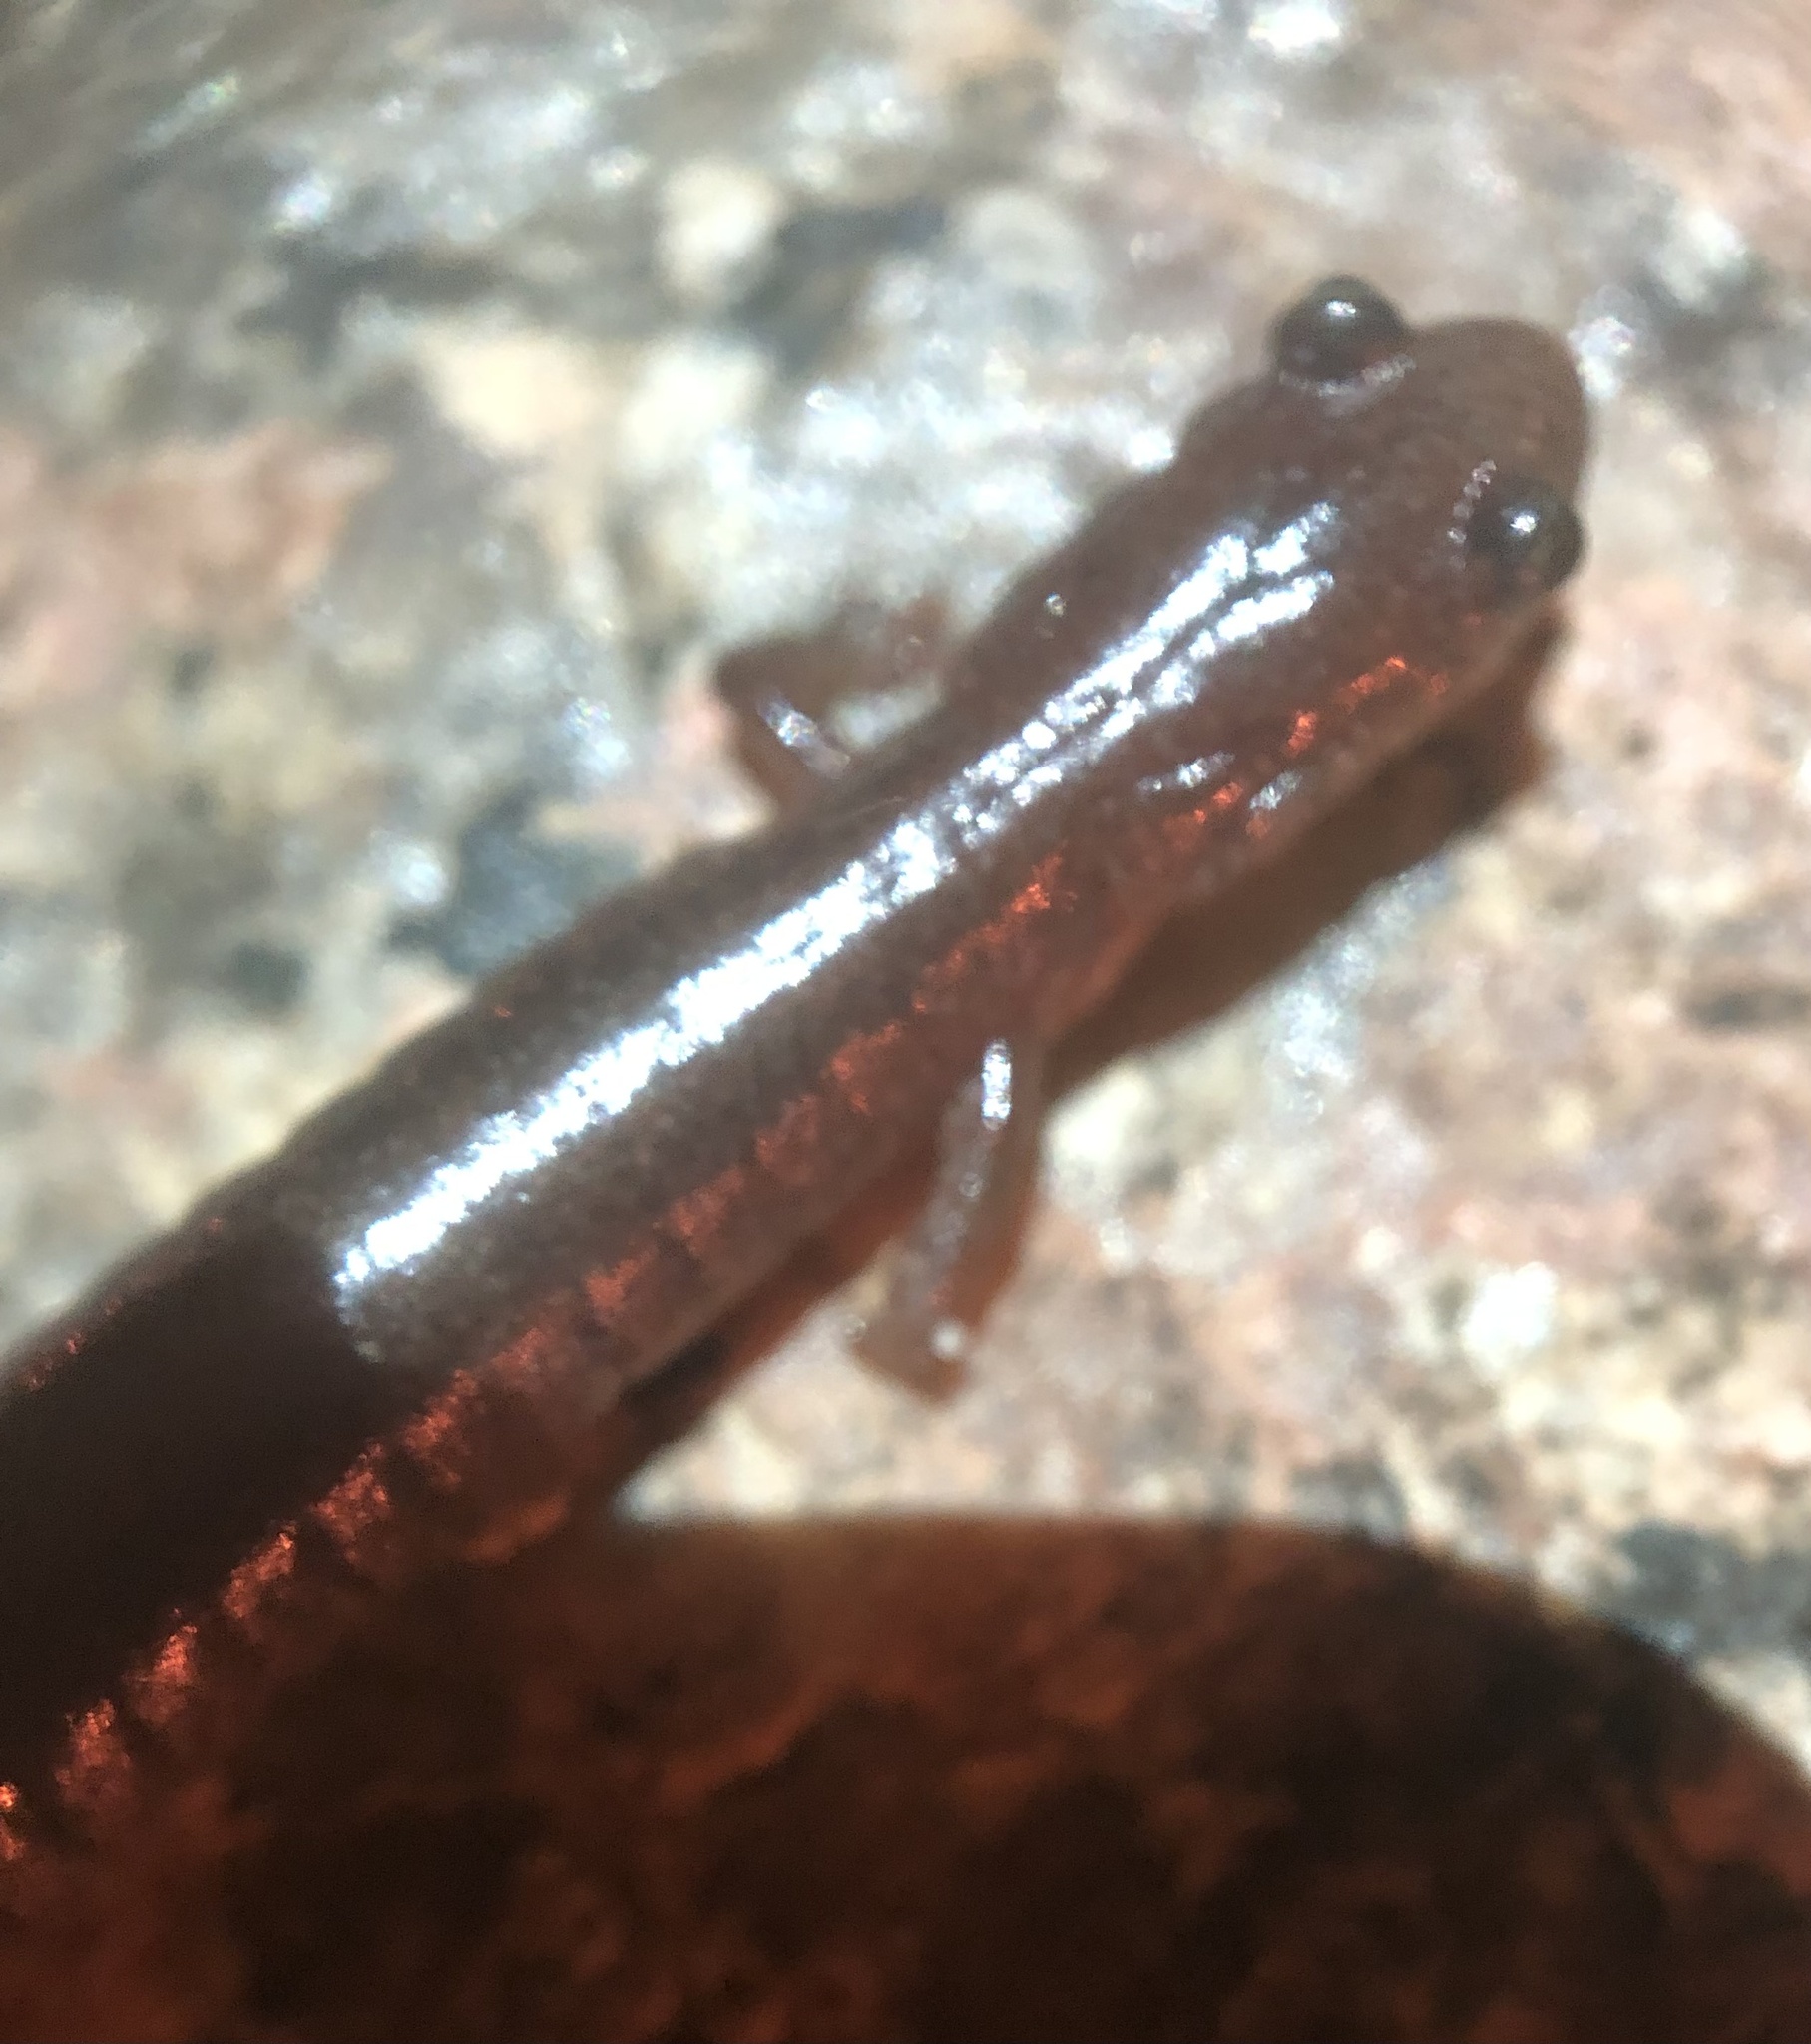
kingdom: Animalia
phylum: Chordata
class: Amphibia
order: Caudata
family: Plethodontidae
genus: Plethodon
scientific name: Plethodon serratus
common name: Southern red-backed salamander
